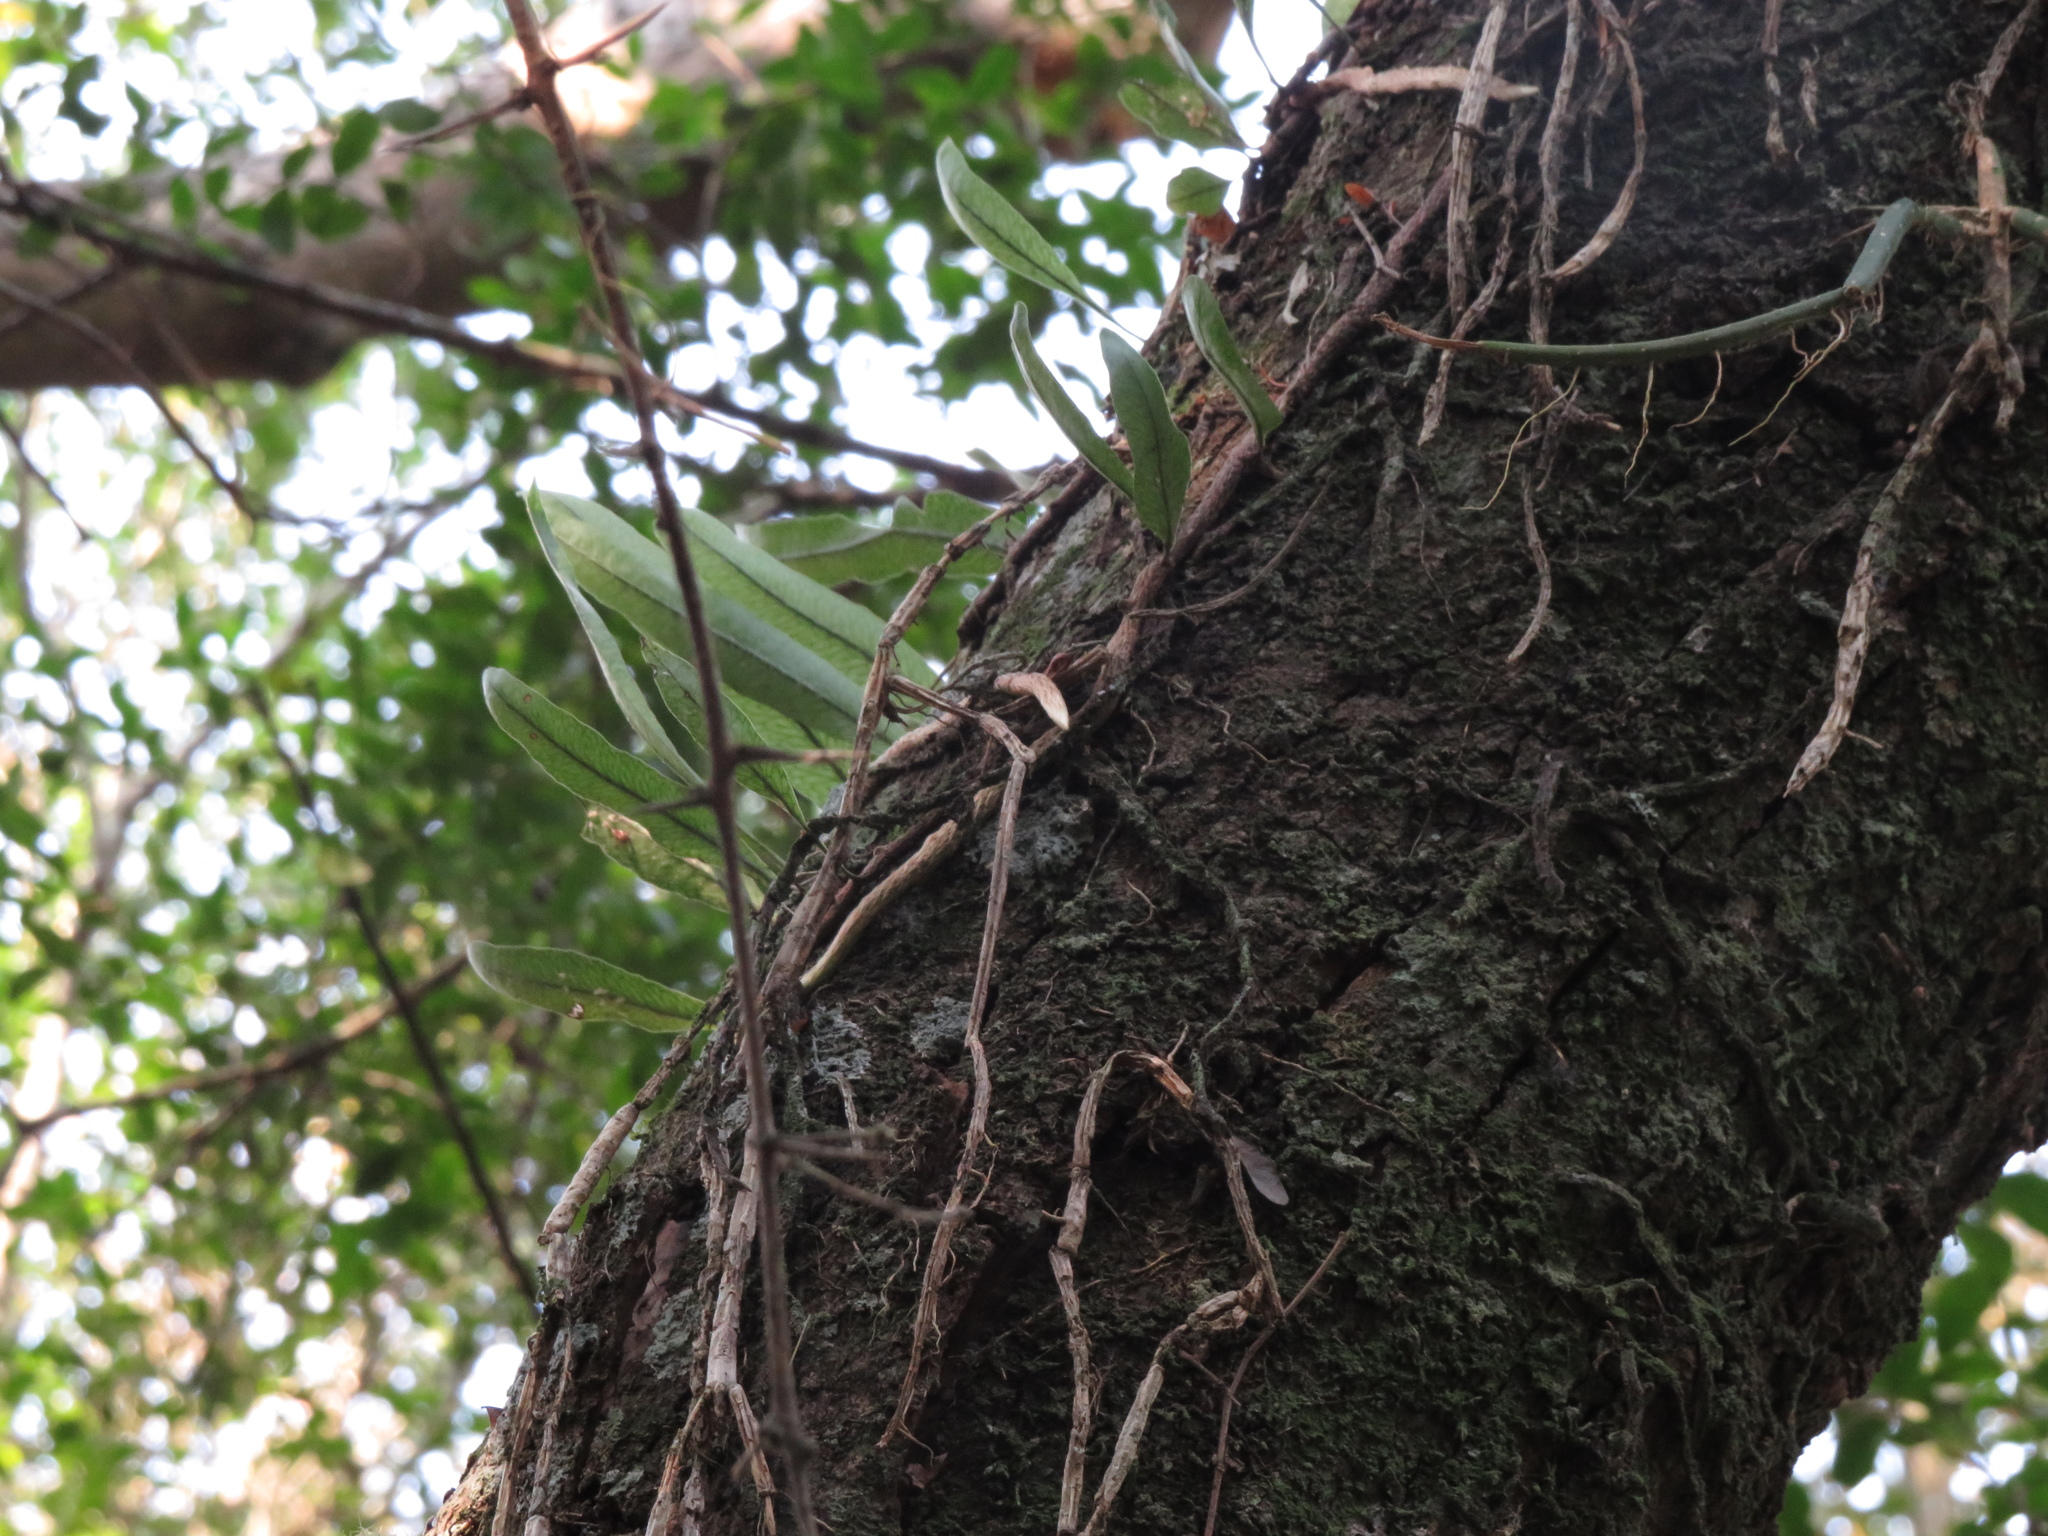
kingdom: Plantae
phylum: Tracheophyta
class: Polypodiopsida
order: Polypodiales
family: Polypodiaceae
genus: Microgramma
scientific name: Microgramma squamulosa
